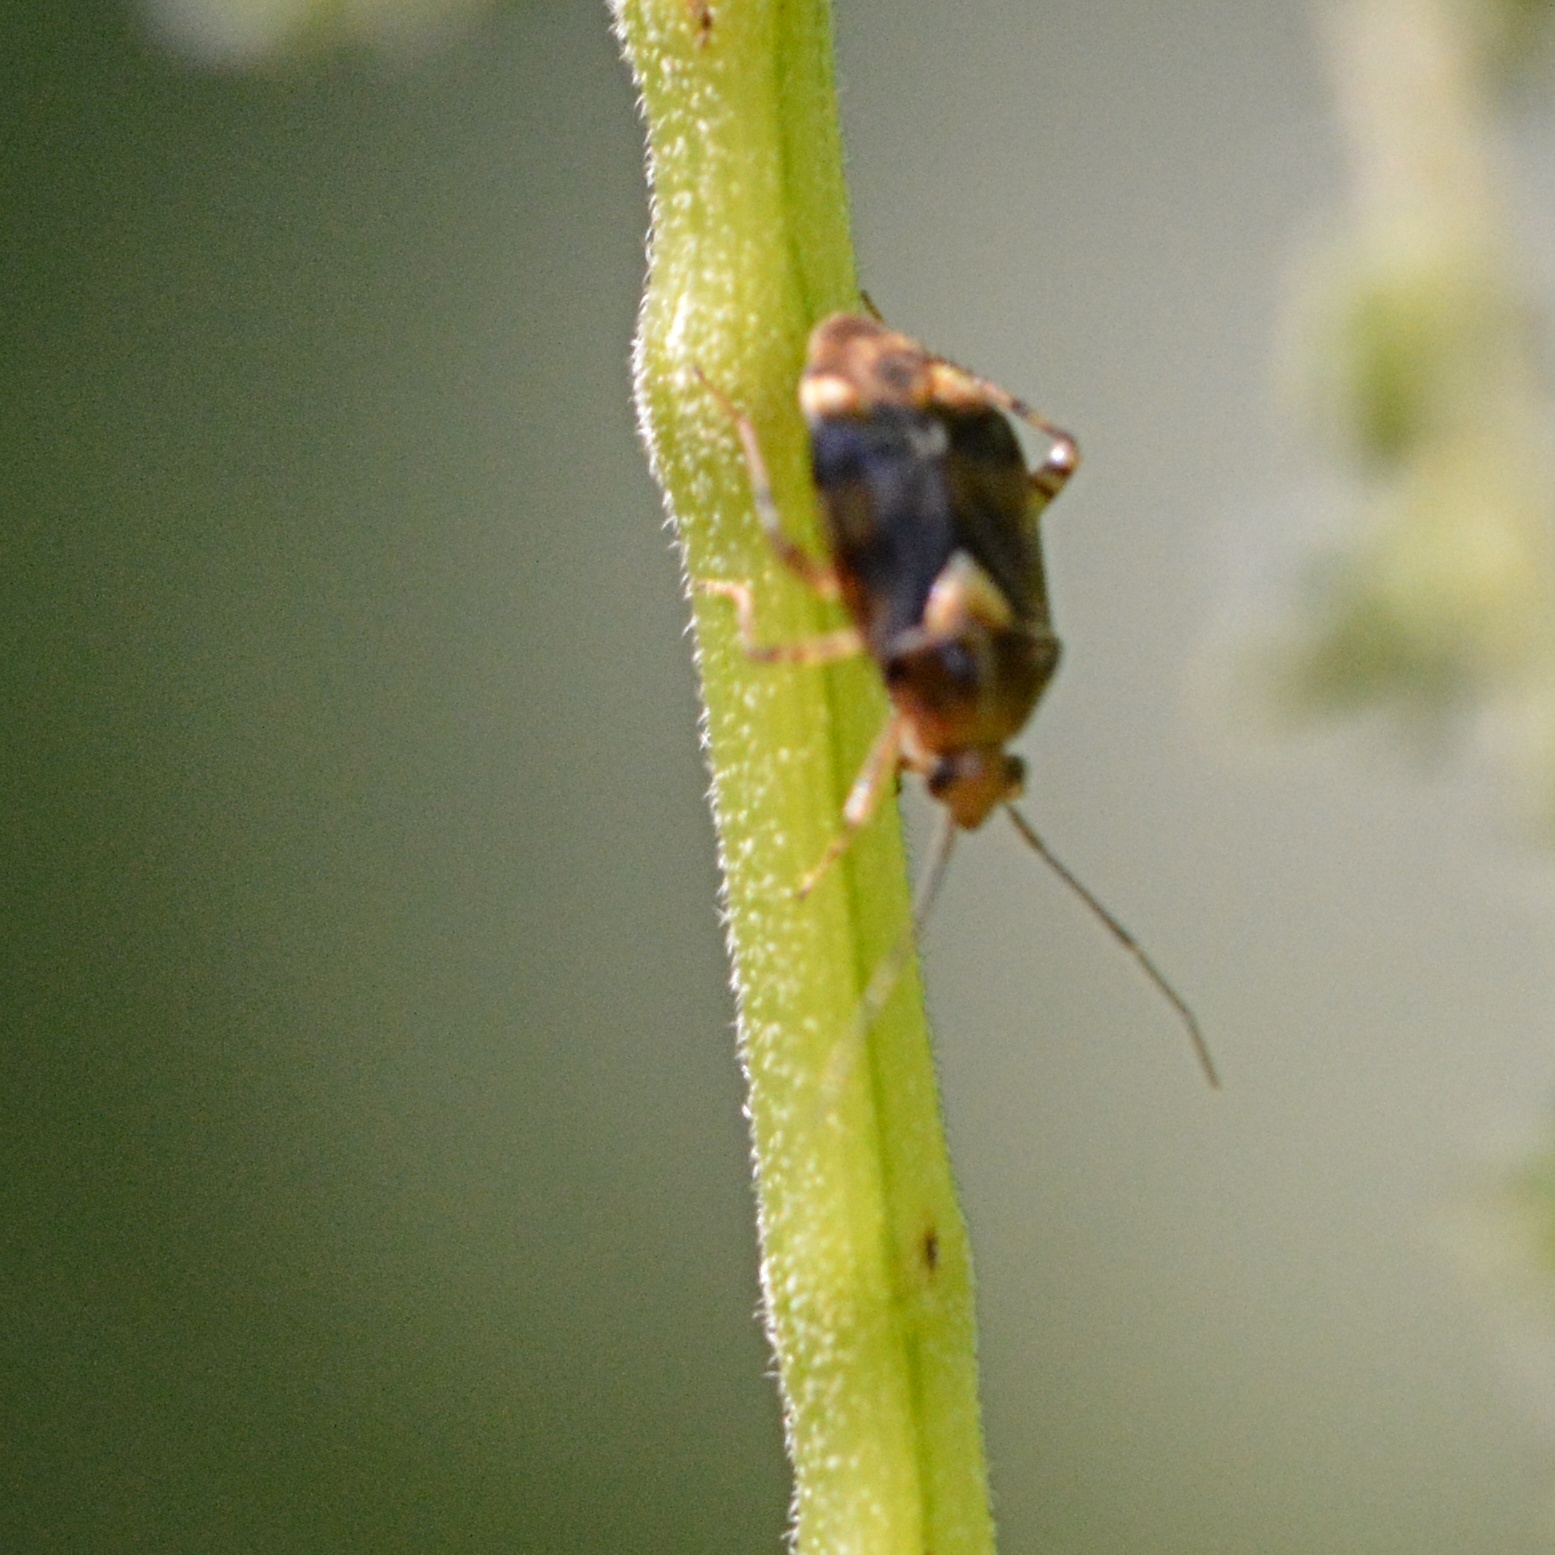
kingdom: Animalia
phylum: Arthropoda
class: Insecta
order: Hemiptera
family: Miridae
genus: Liocoris
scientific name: Liocoris tripustulatus
